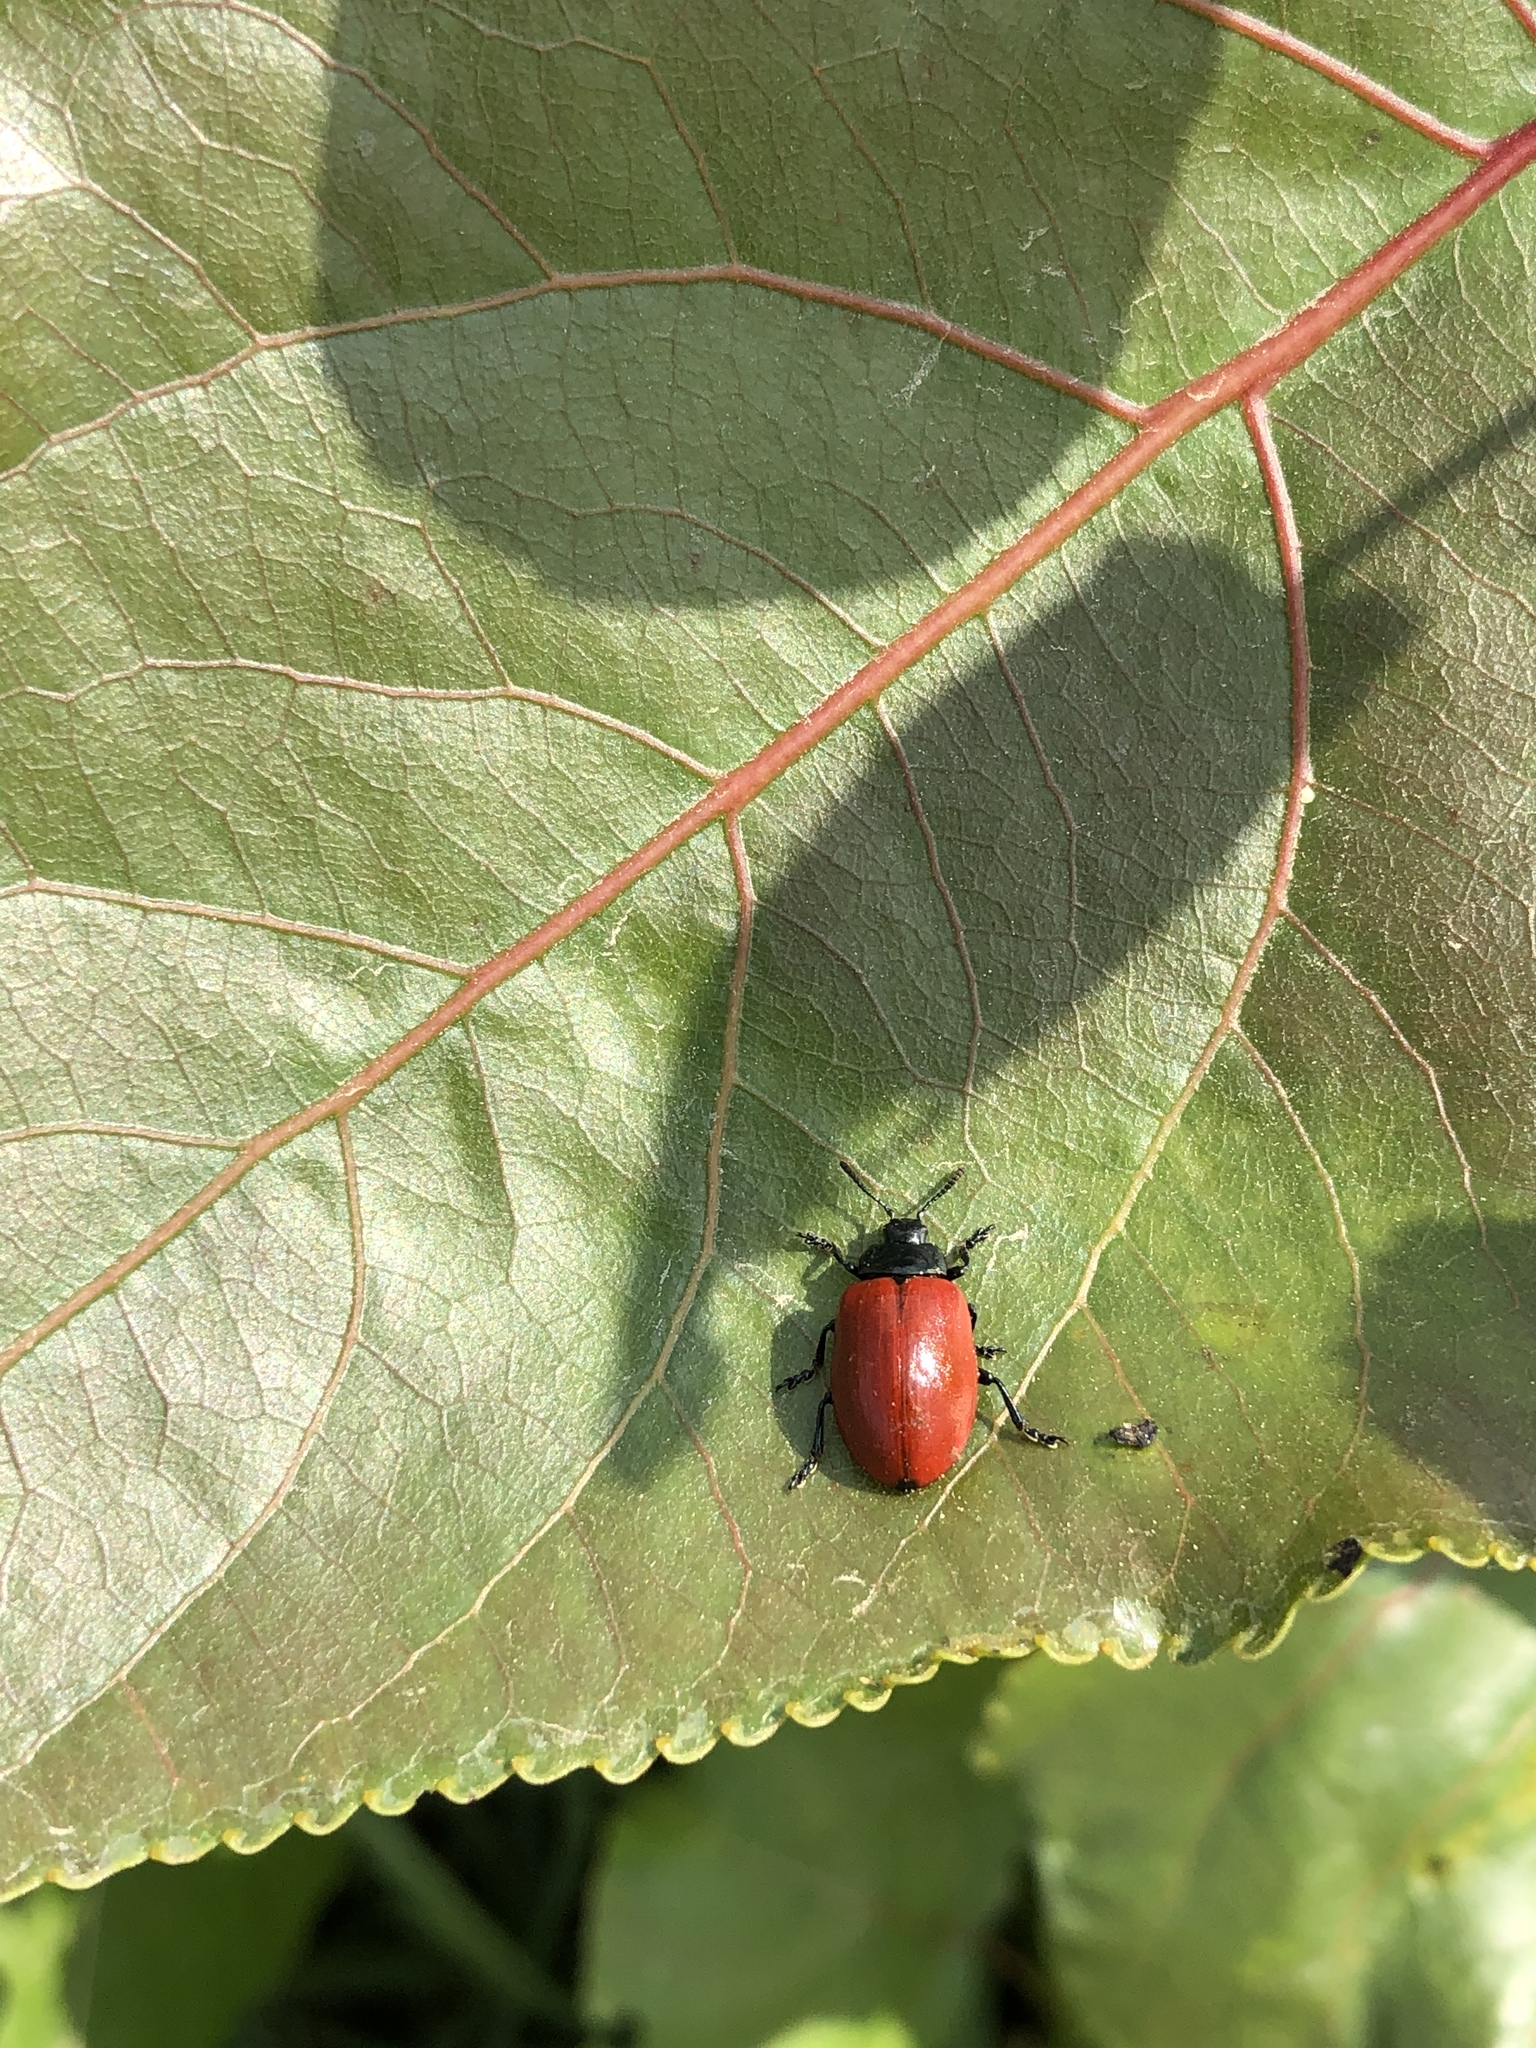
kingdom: Animalia
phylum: Arthropoda
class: Insecta
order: Coleoptera
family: Chrysomelidae
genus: Chrysomela
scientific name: Chrysomela populi
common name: Red poplar leaf beetle
